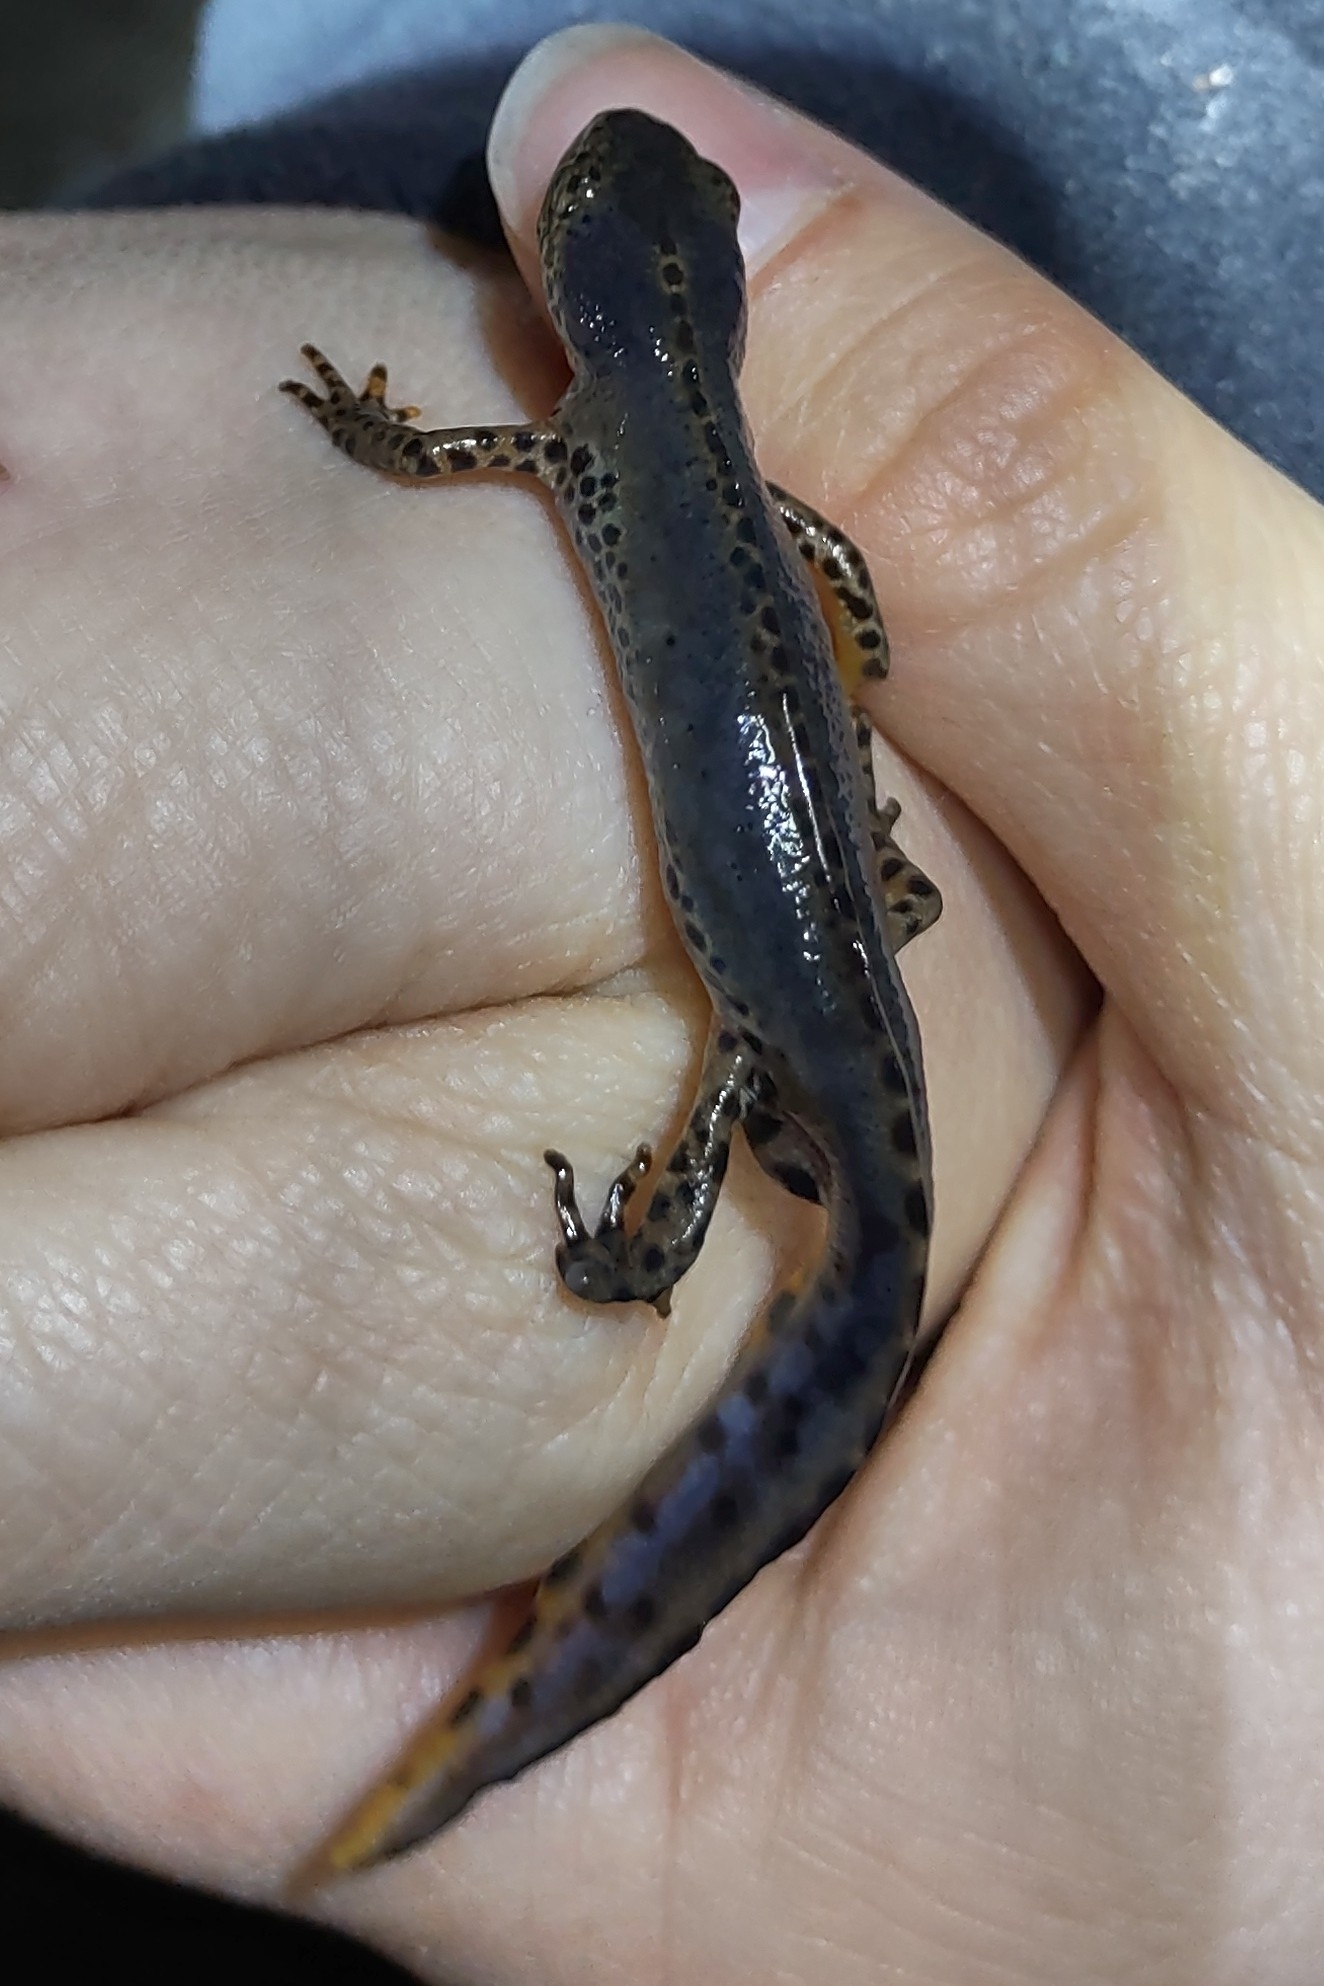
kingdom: Animalia
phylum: Chordata
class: Amphibia
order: Caudata
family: Salamandridae
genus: Ichthyosaura
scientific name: Ichthyosaura alpestris
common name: Alpine newt
